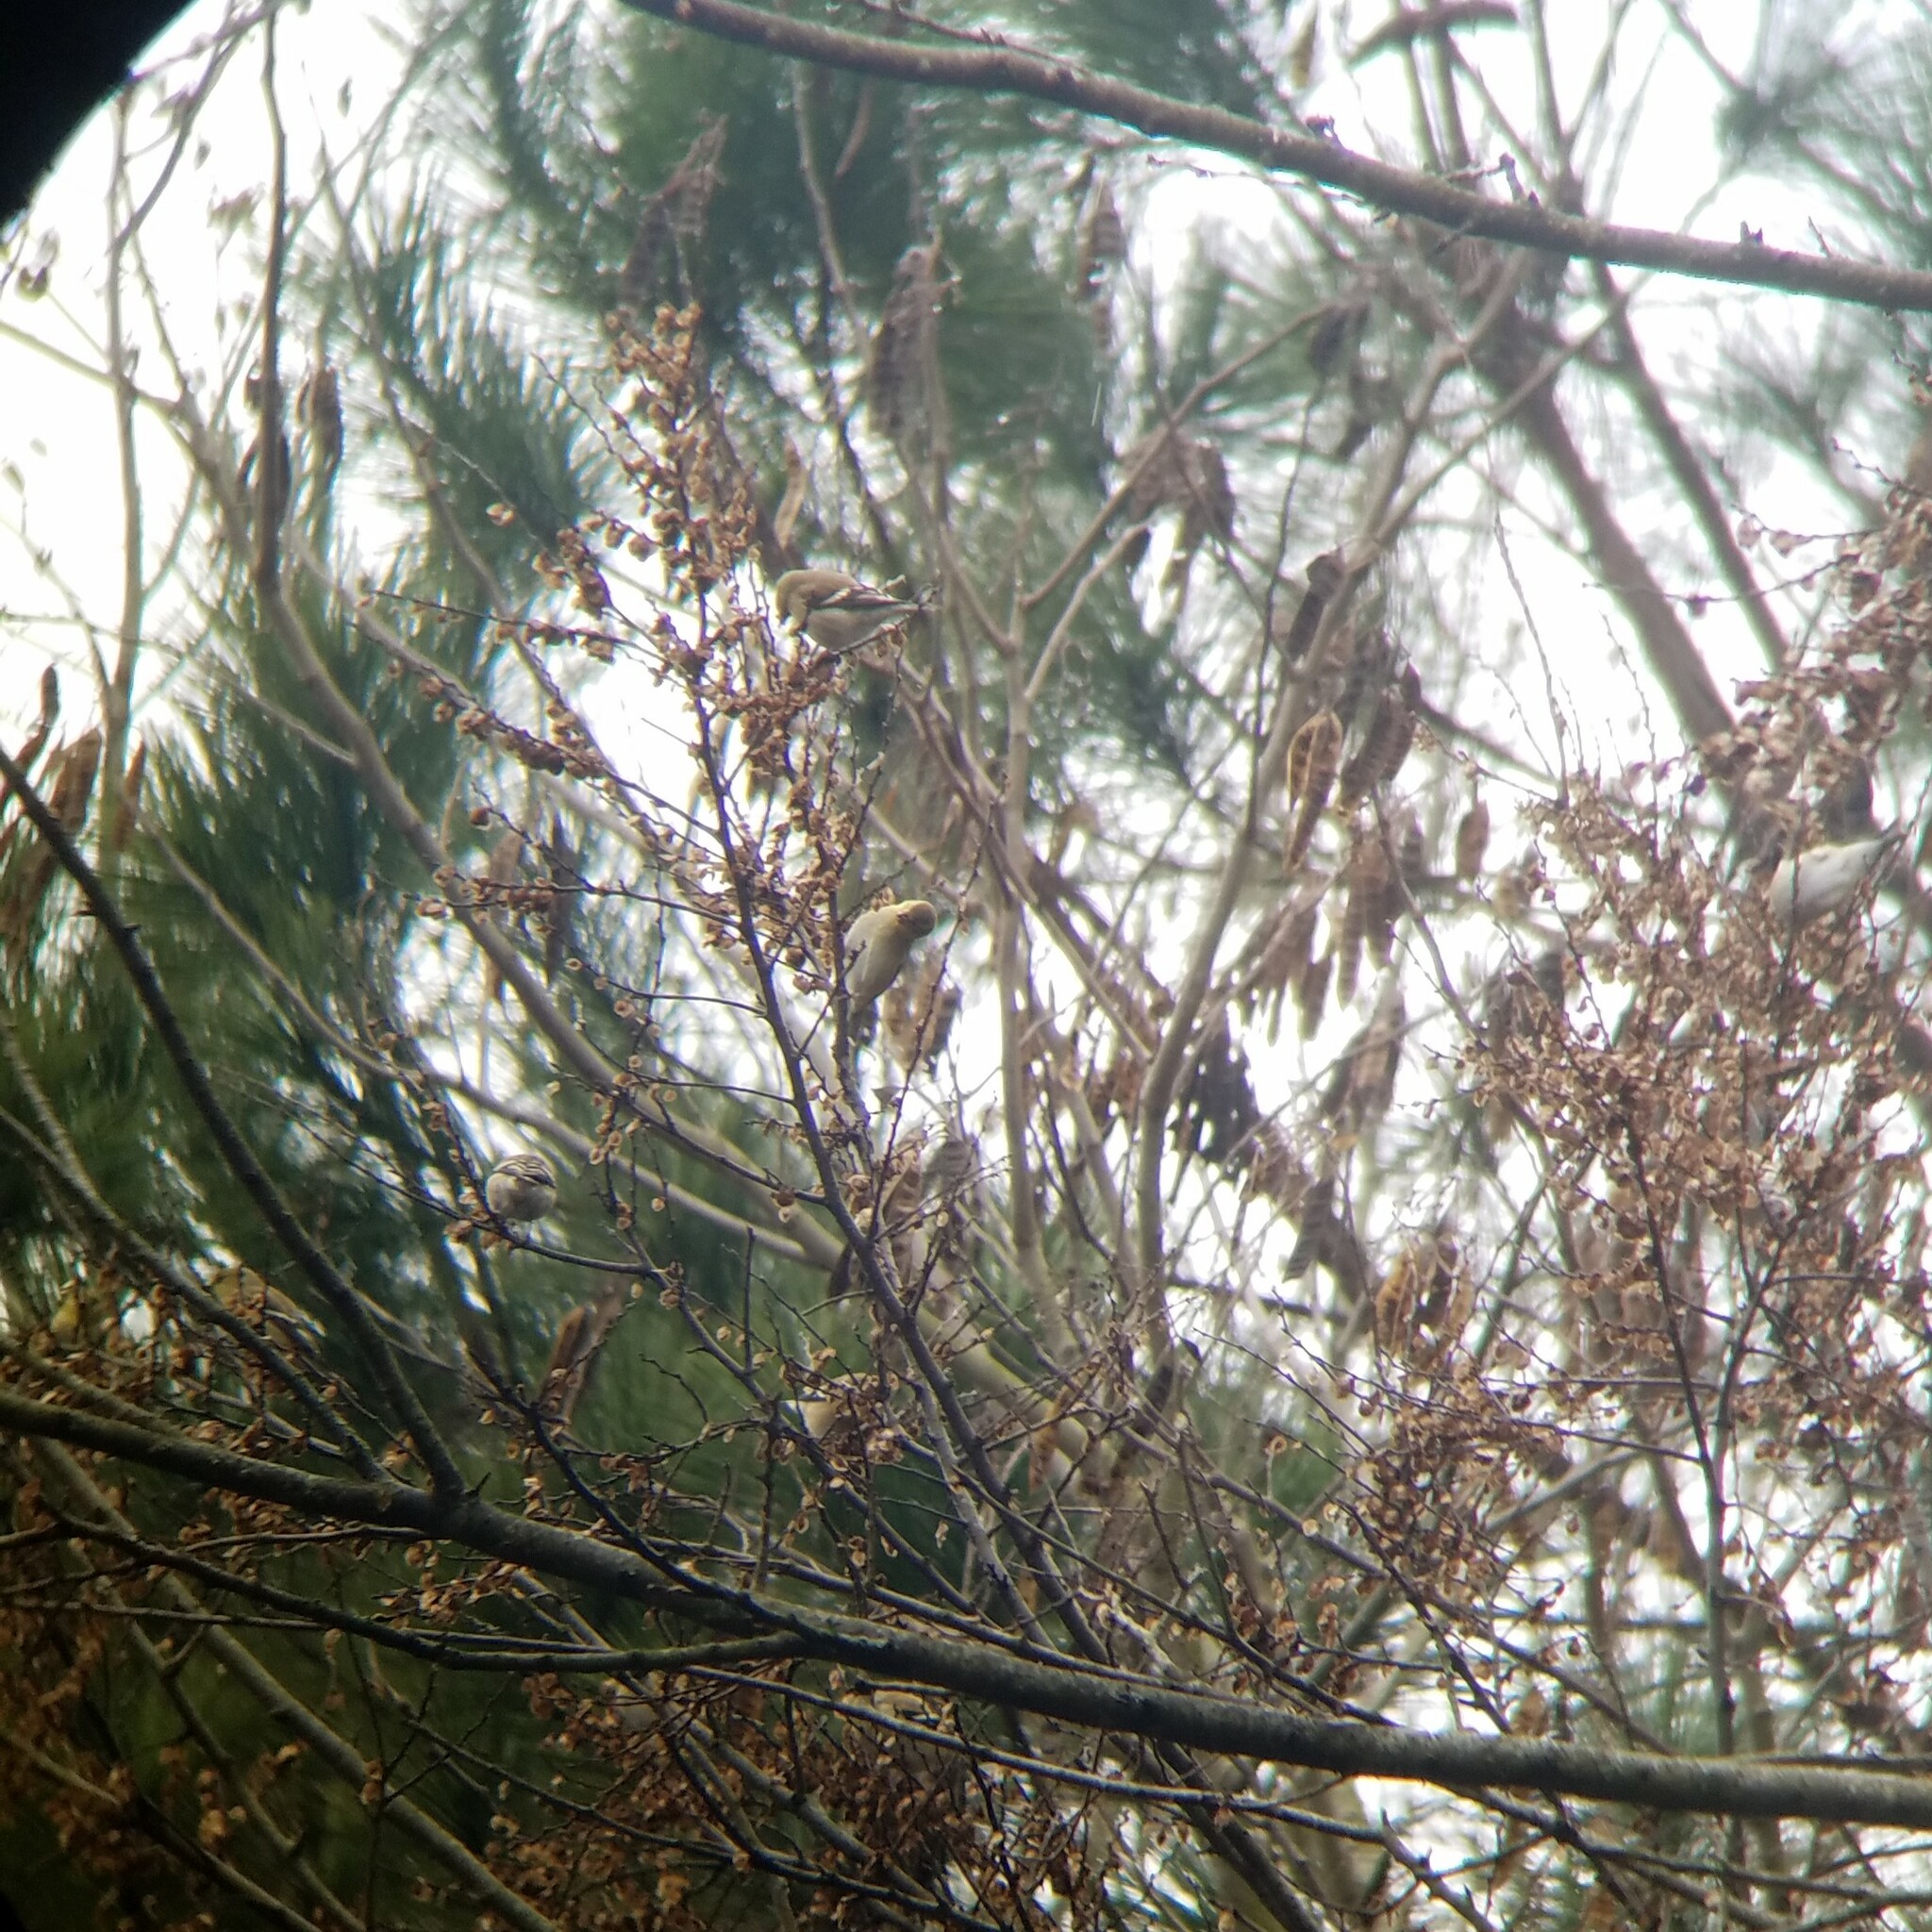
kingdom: Animalia
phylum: Chordata
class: Aves
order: Passeriformes
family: Fringillidae
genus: Spinus
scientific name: Spinus tristis
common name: American goldfinch
